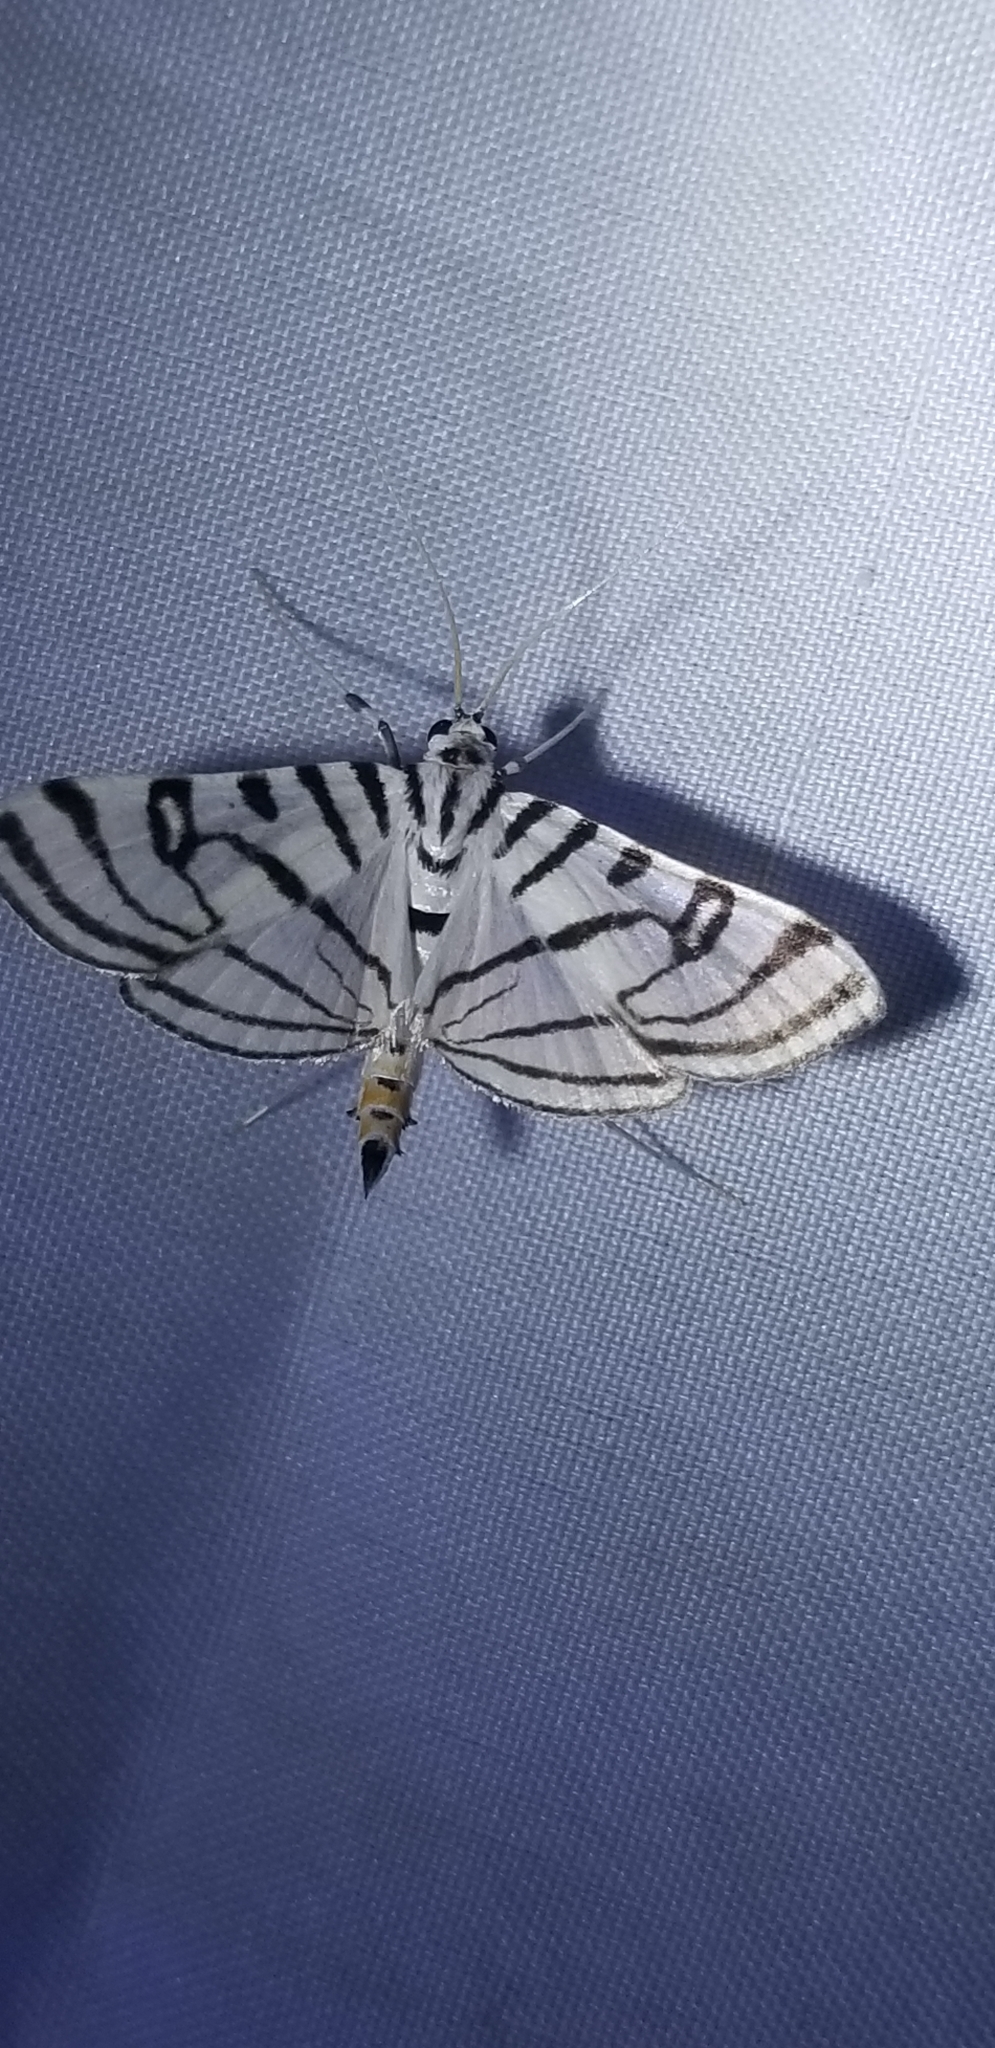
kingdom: Animalia
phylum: Arthropoda
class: Insecta
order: Lepidoptera
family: Crambidae
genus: Conchylodes
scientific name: Conchylodes ovulalis
